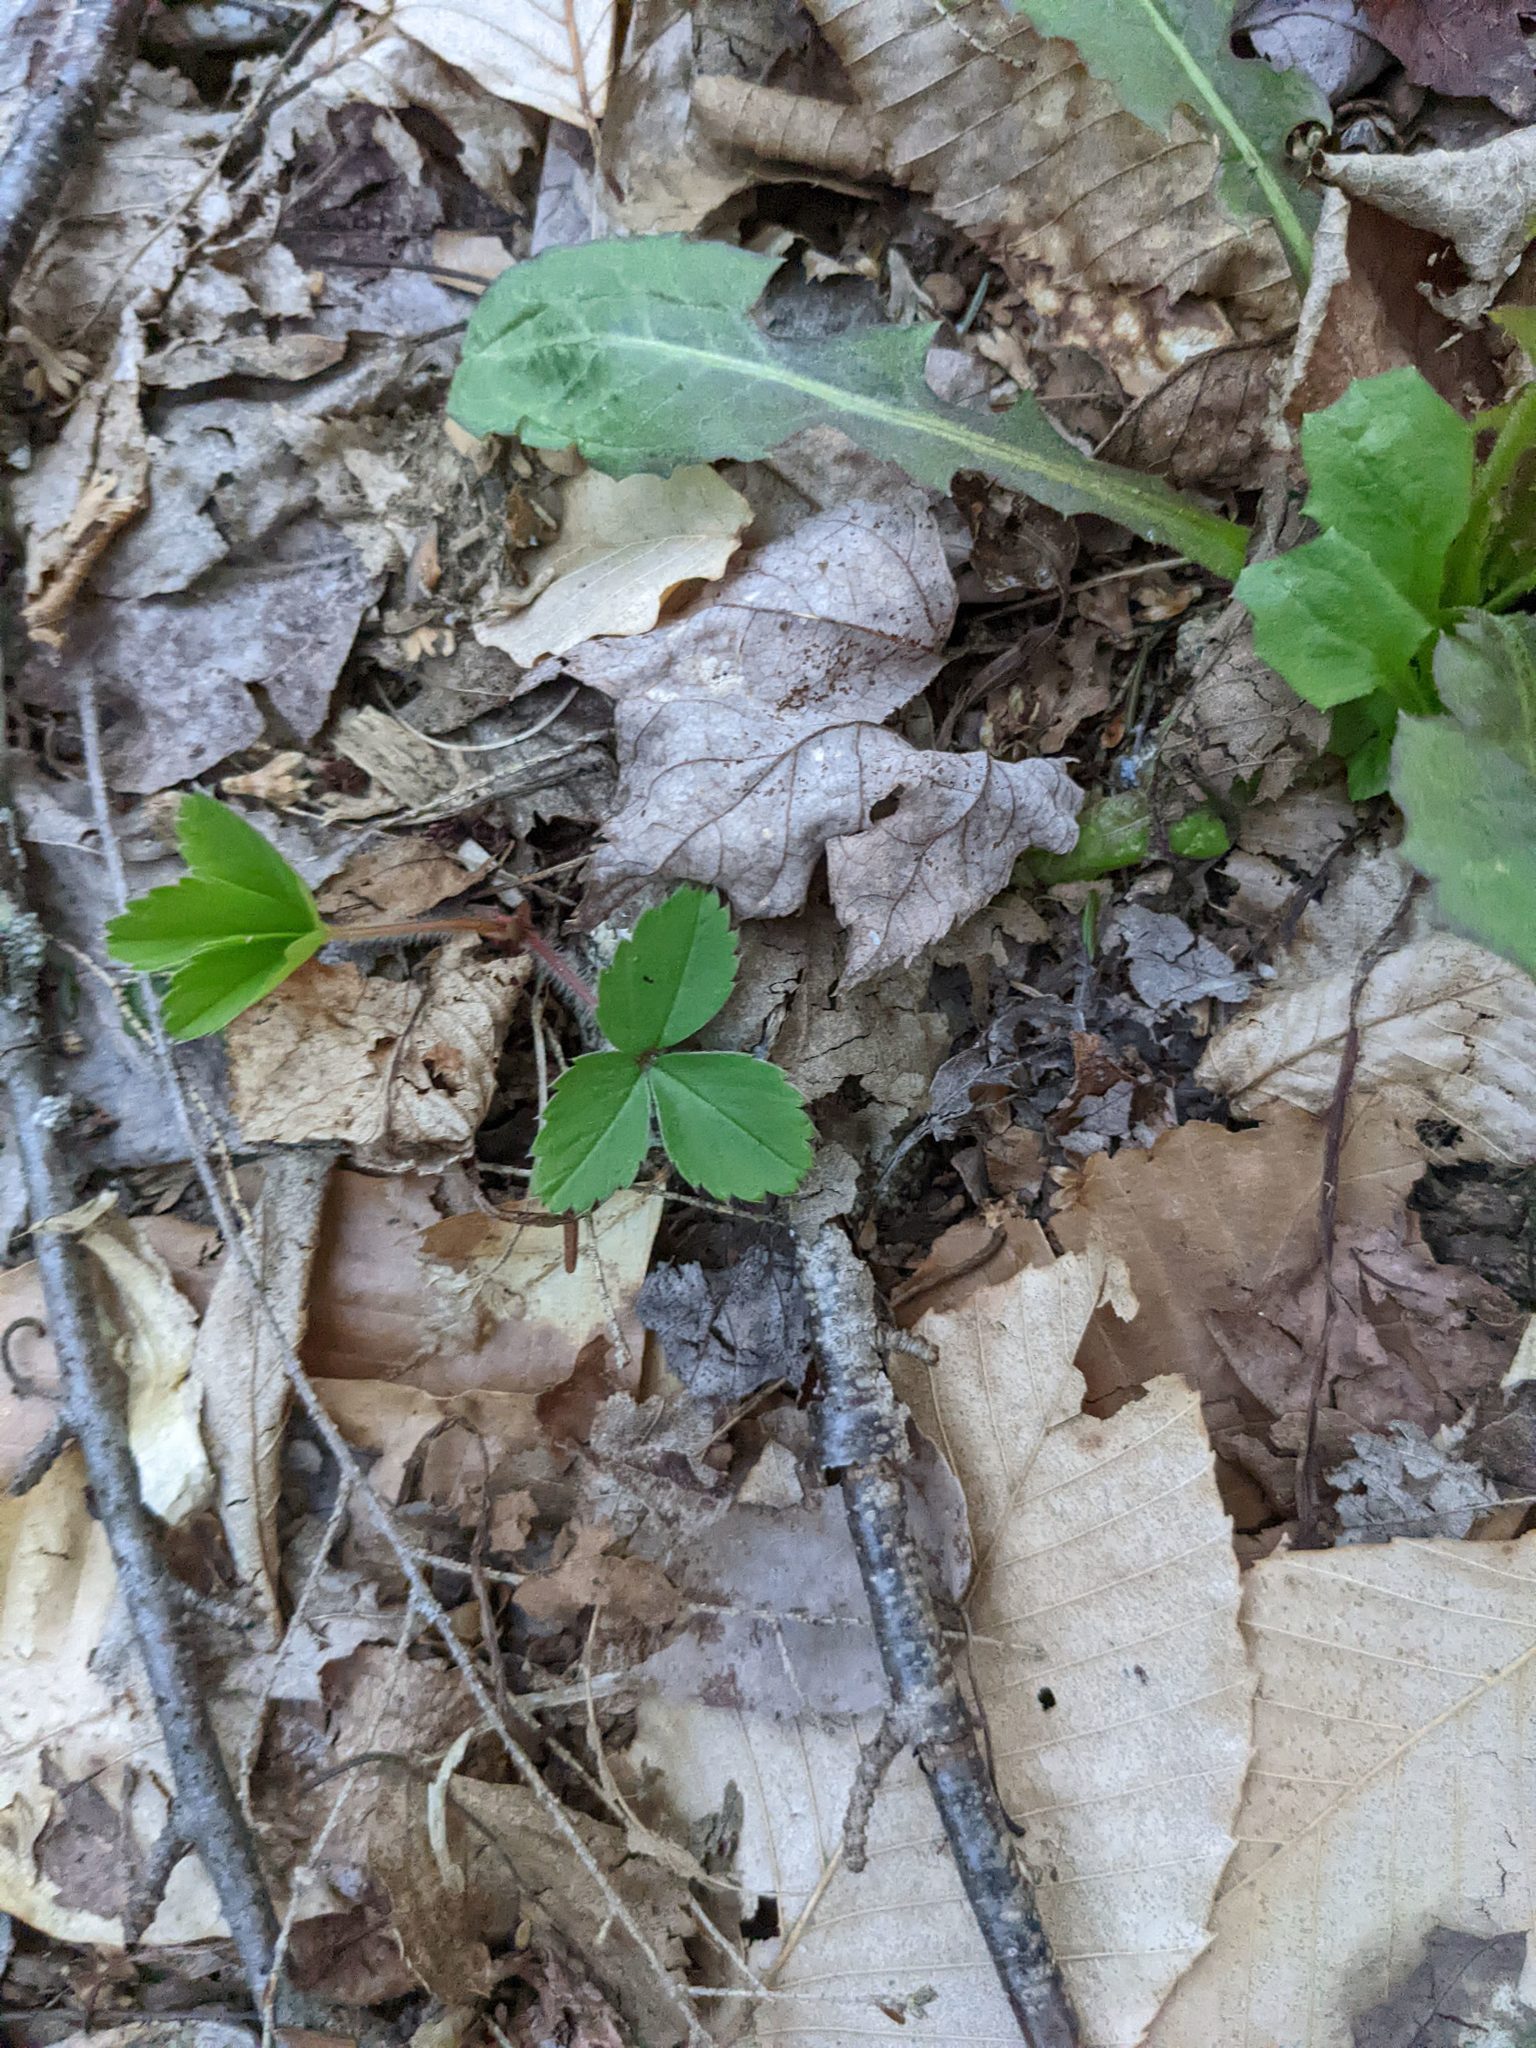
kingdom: Plantae
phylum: Tracheophyta
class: Magnoliopsida
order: Rosales
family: Rosaceae
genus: Fragaria
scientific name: Fragaria virginiana
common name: Thickleaved wild strawberry
